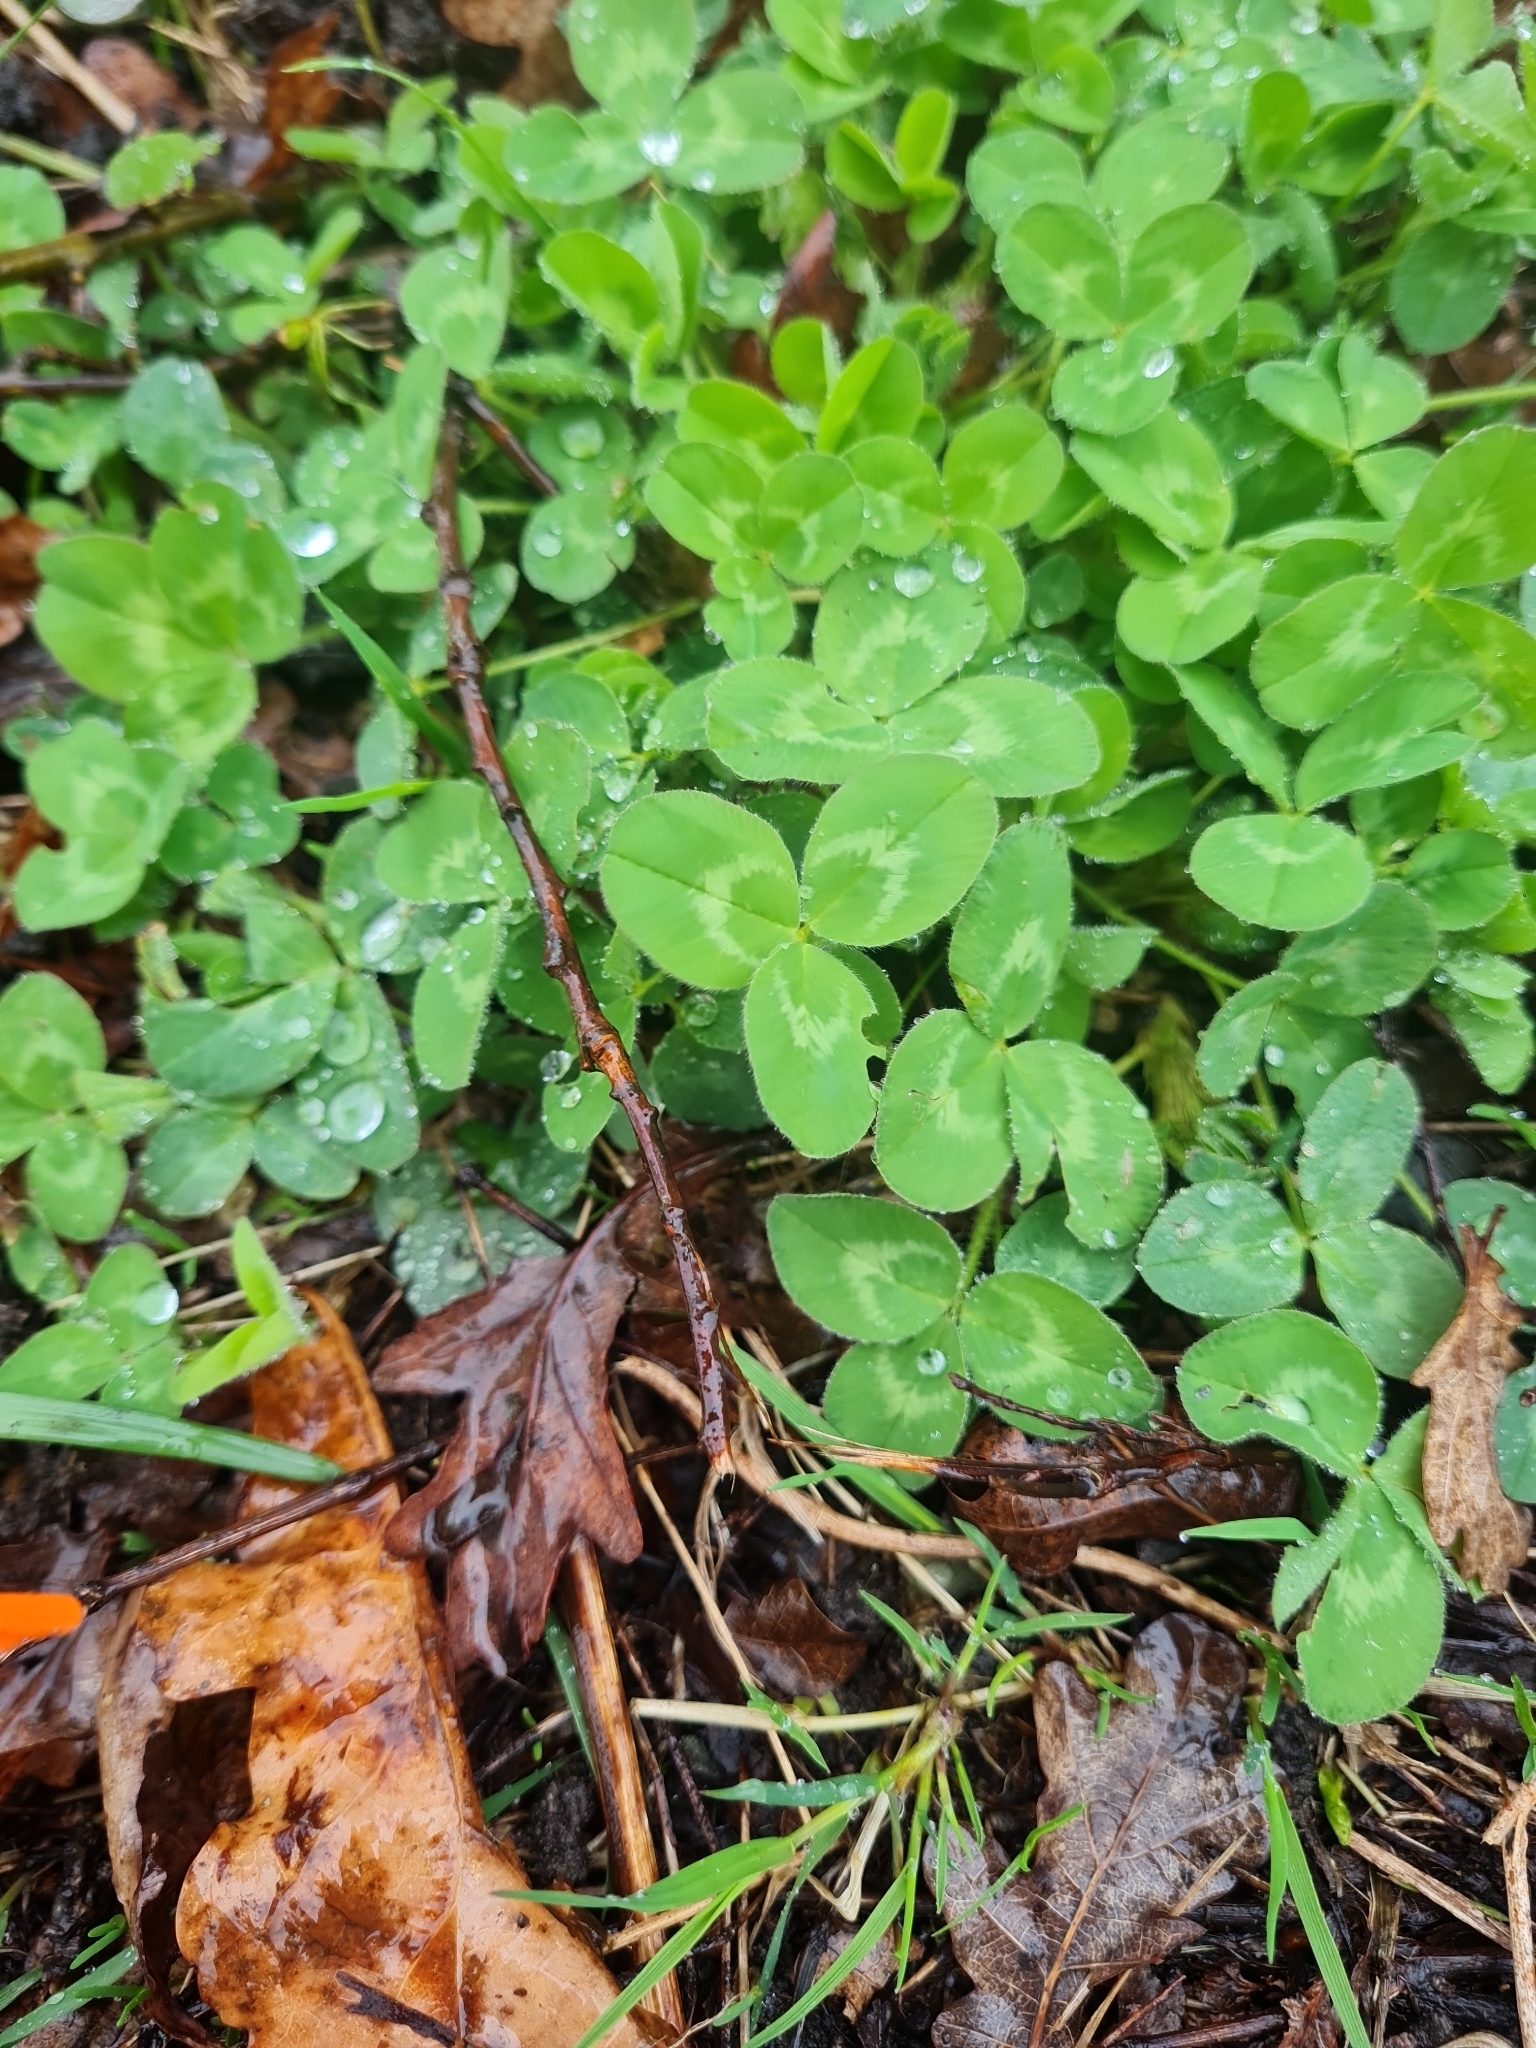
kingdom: Plantae
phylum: Tracheophyta
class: Magnoliopsida
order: Fabales
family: Fabaceae
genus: Trifolium
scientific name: Trifolium pratense
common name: Red clover
